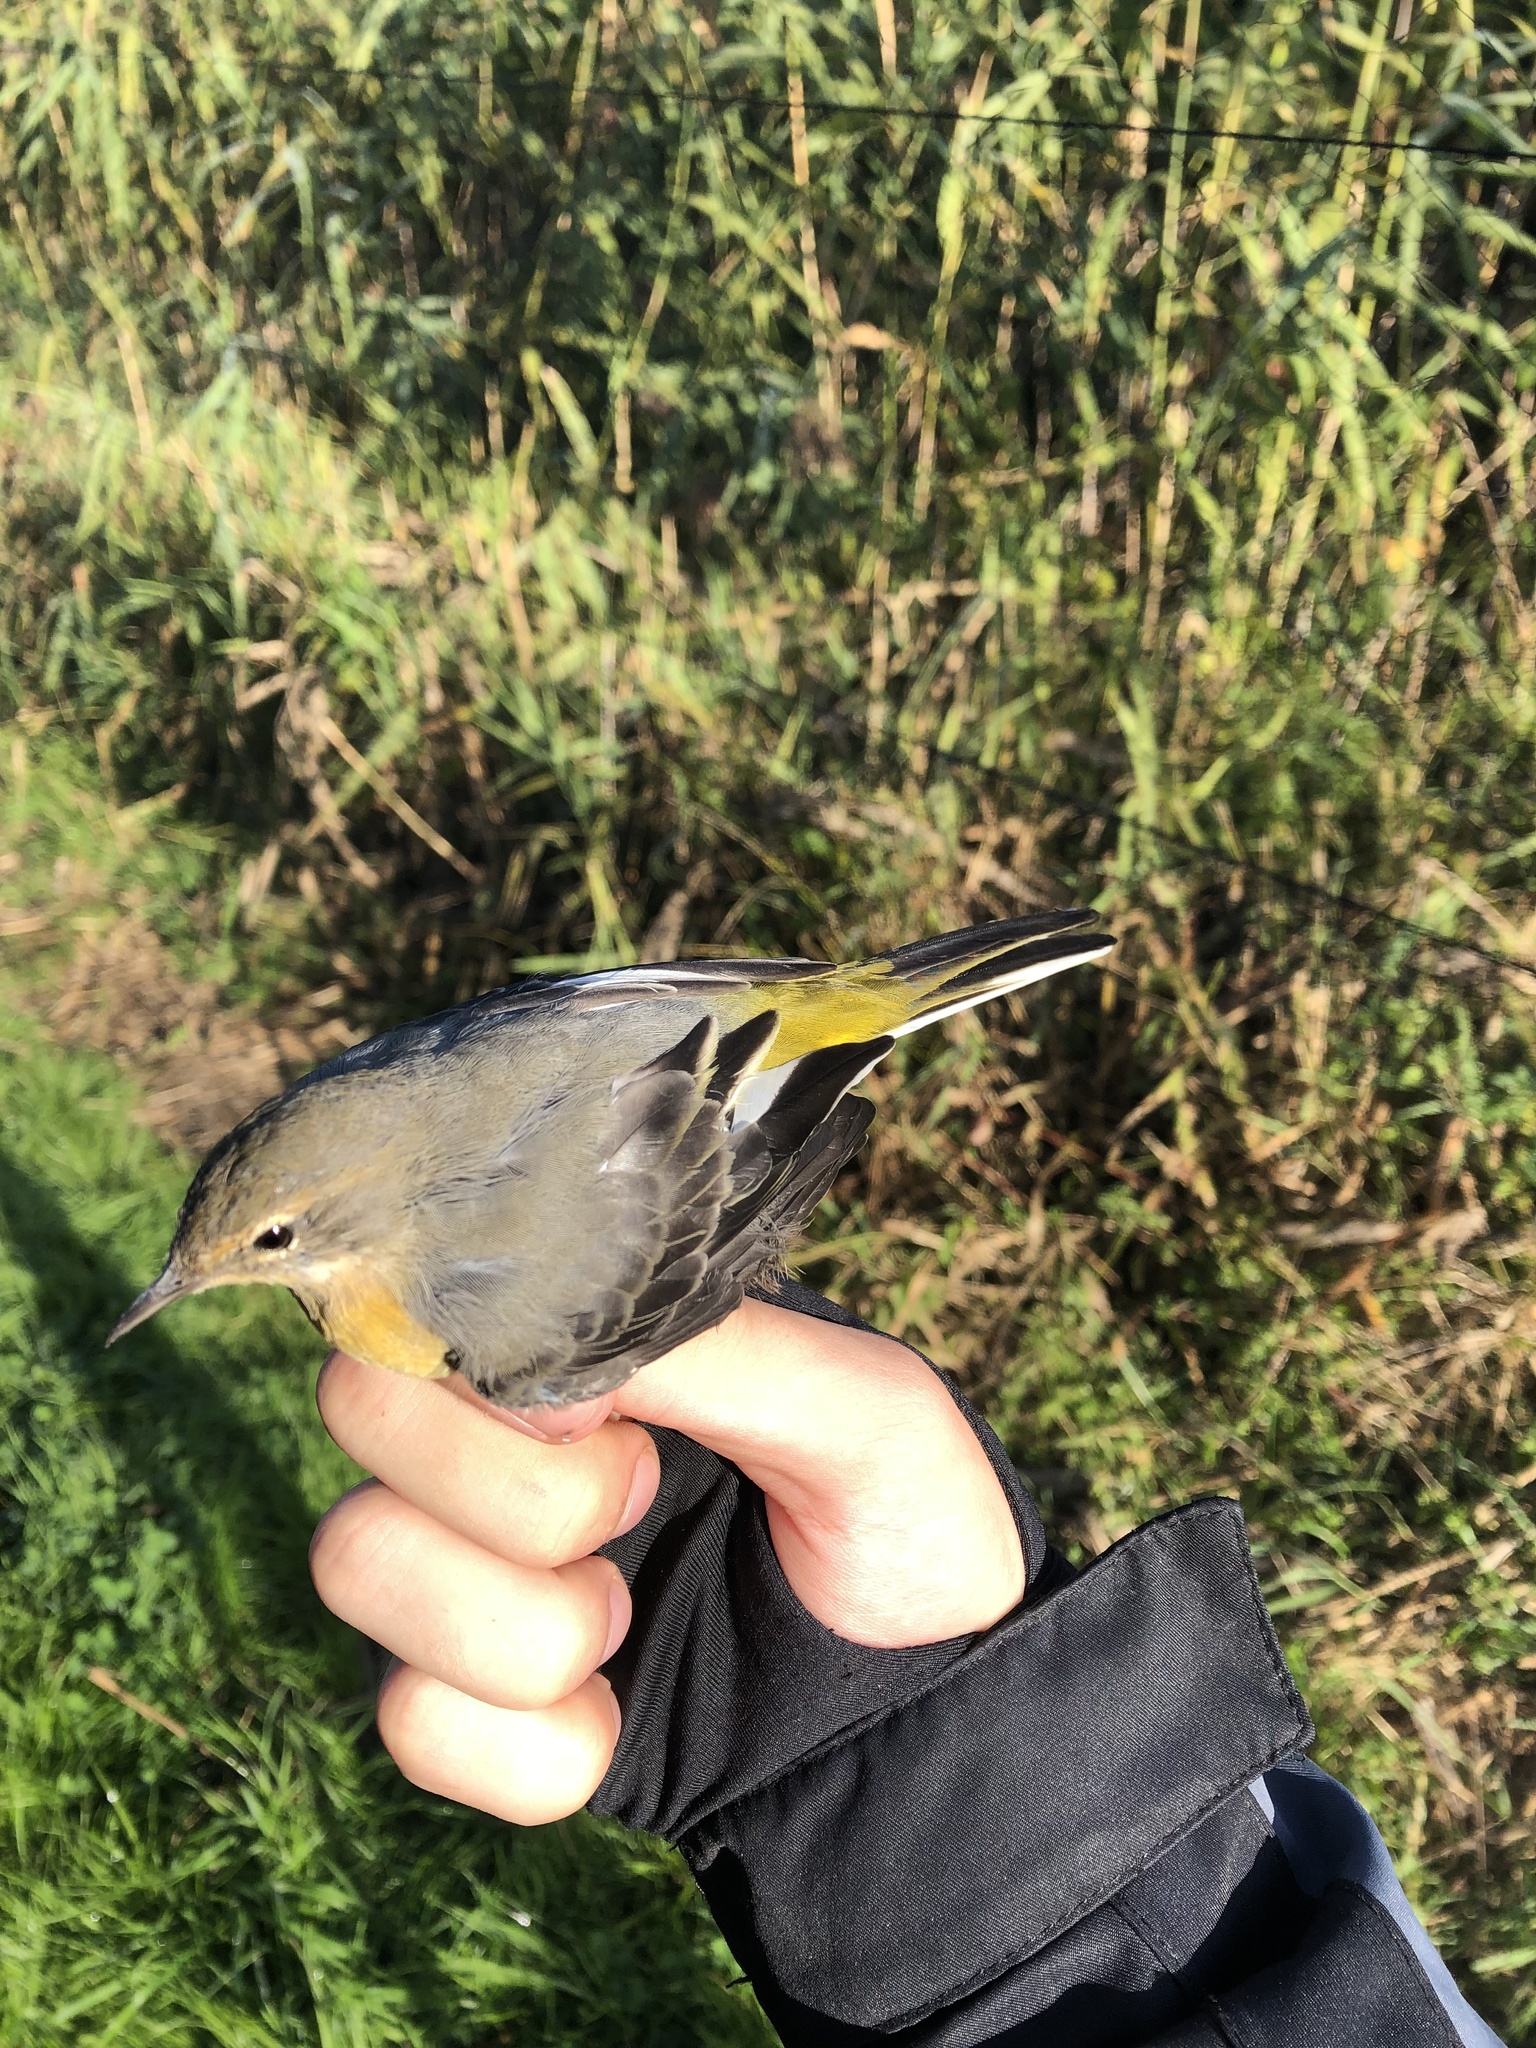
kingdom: Animalia
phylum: Chordata
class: Aves
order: Passeriformes
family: Motacillidae
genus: Motacilla
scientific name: Motacilla cinerea
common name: Grey wagtail
